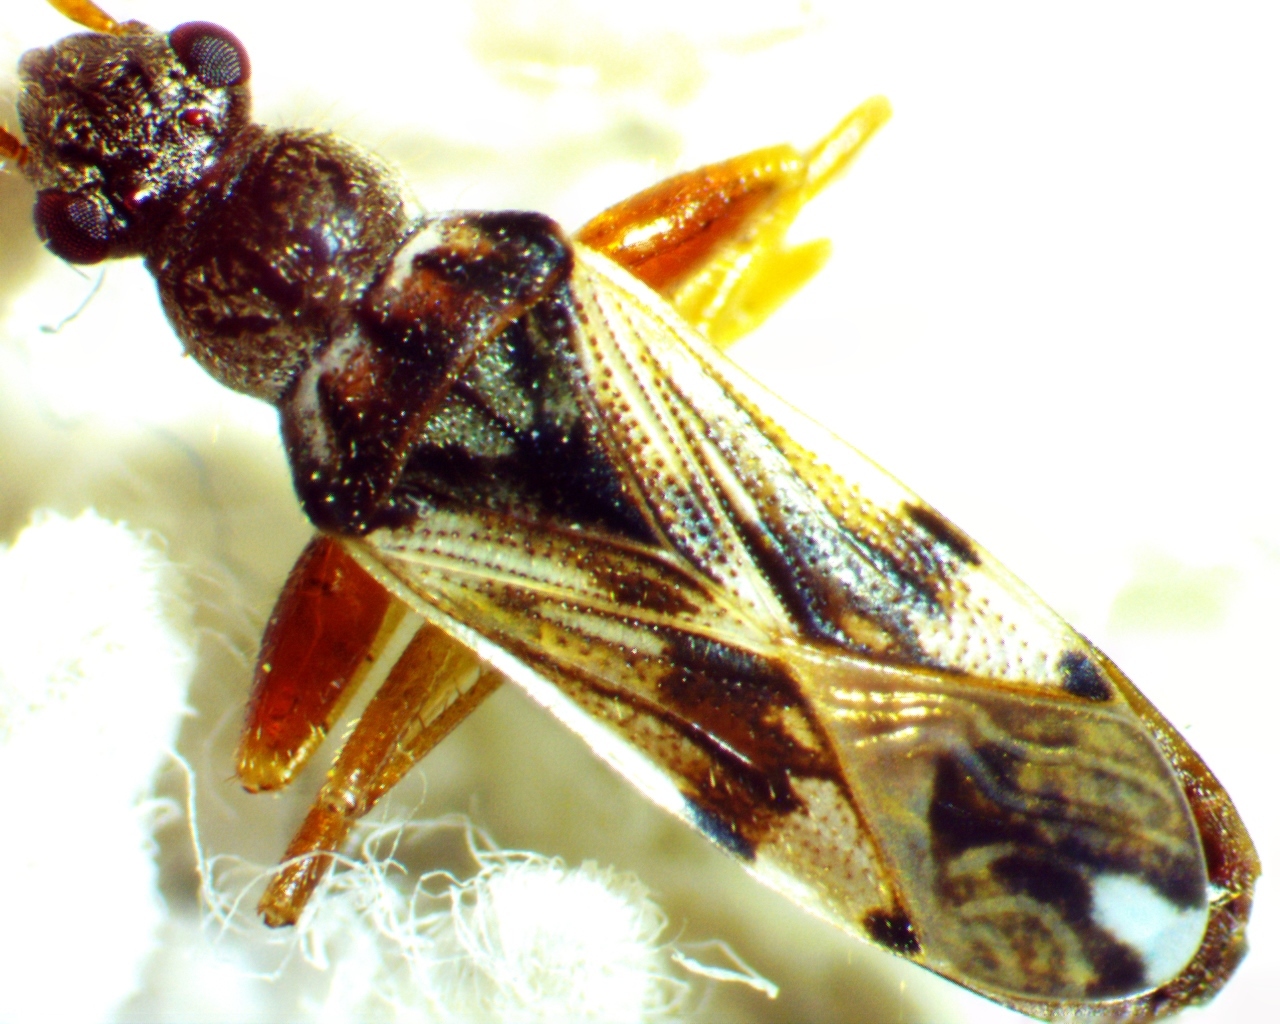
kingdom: Animalia
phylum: Arthropoda
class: Insecta
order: Hemiptera
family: Rhyparochromidae
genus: Neopamera
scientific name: Neopamera bilobata
